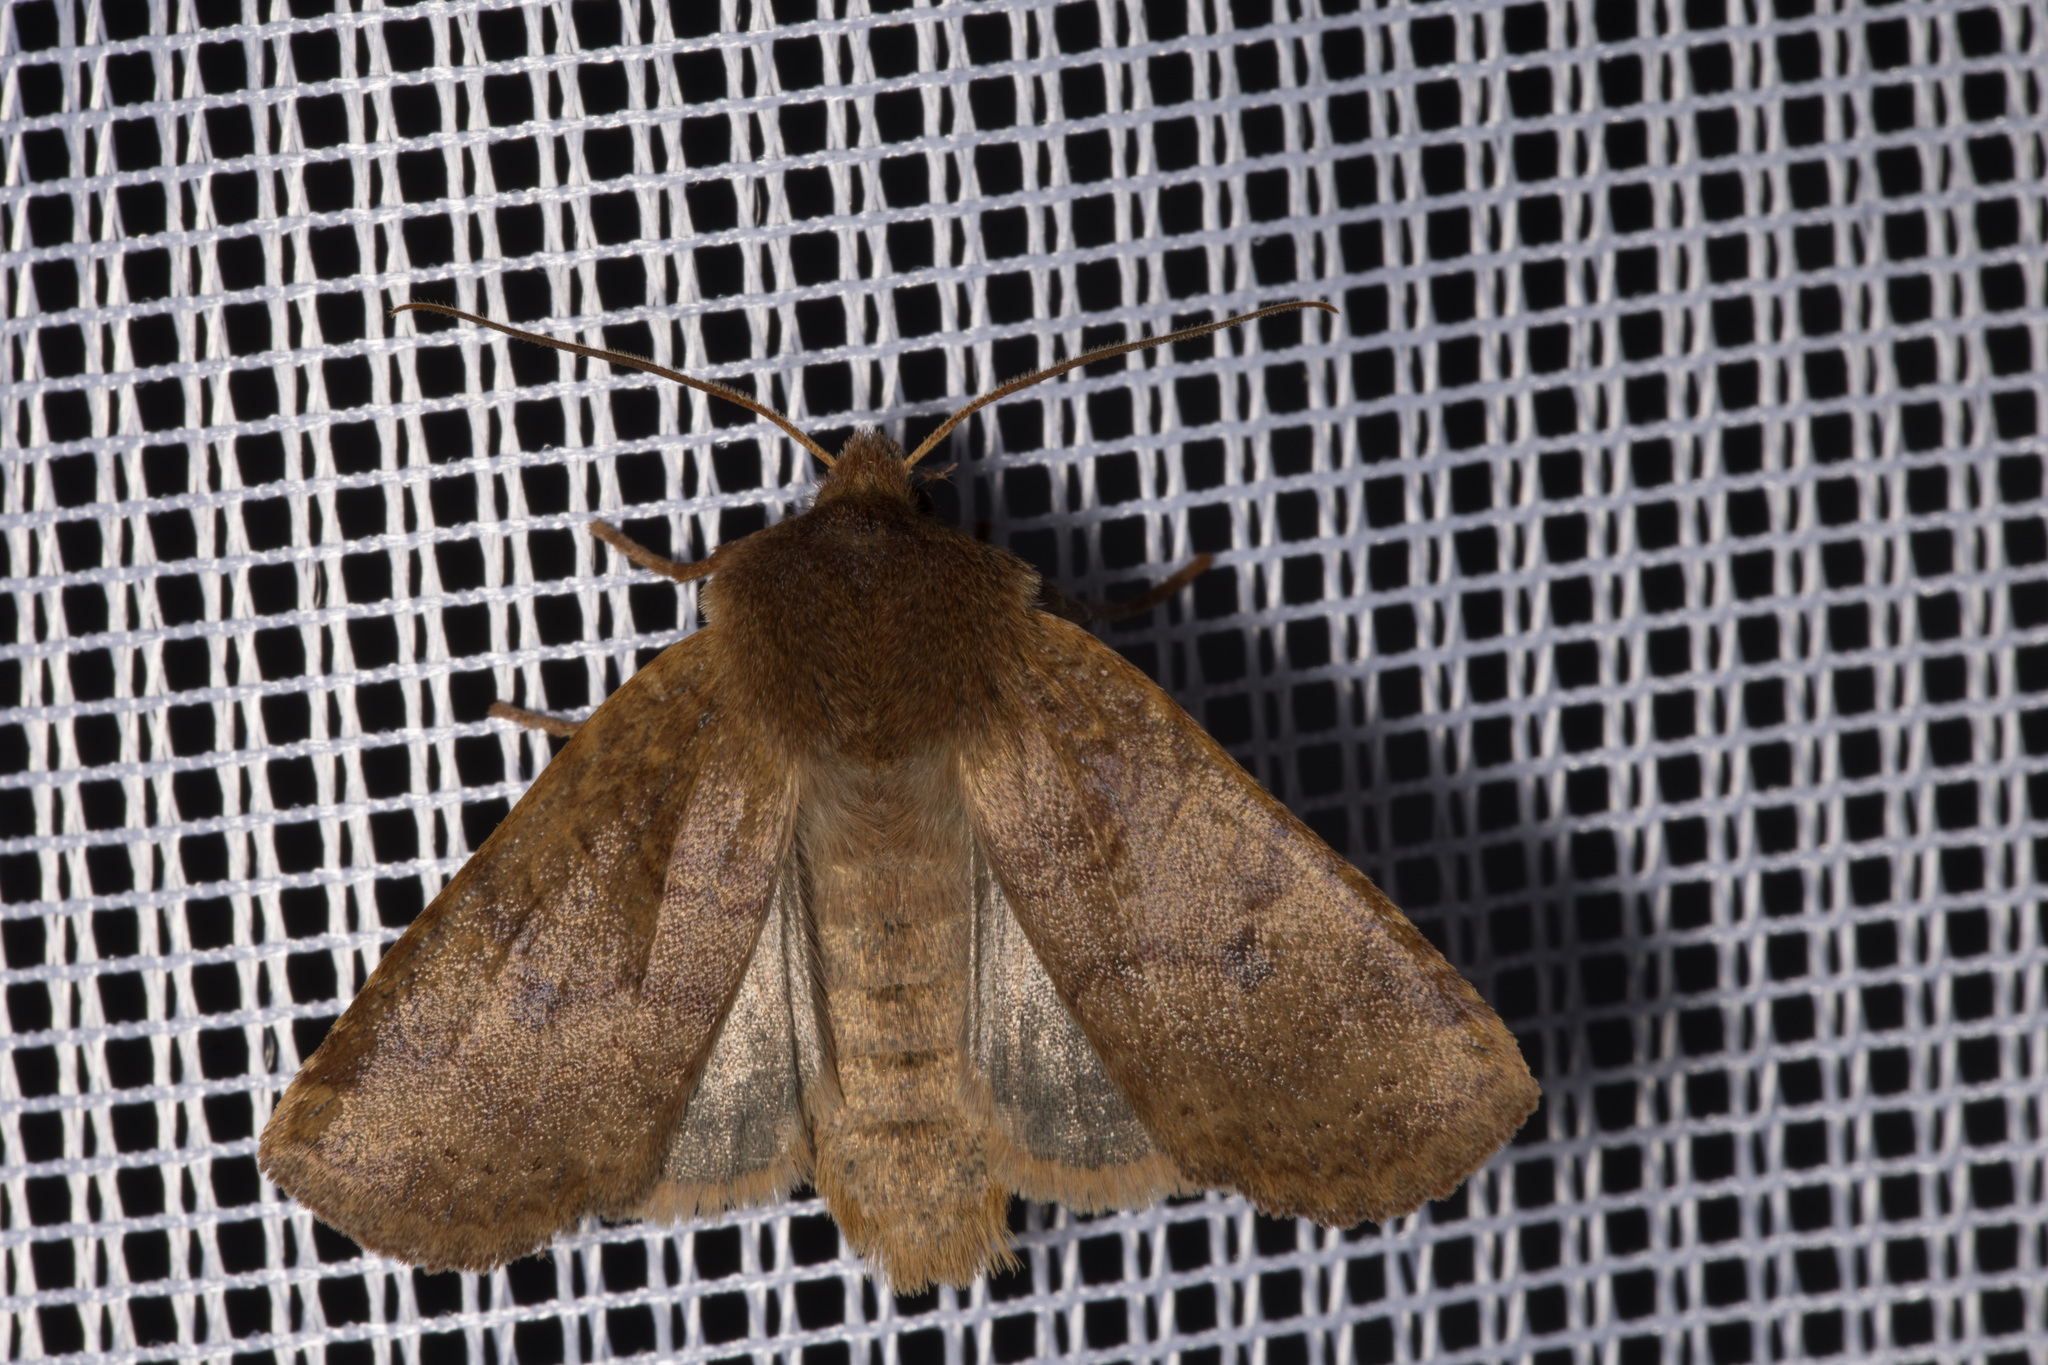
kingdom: Animalia
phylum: Arthropoda
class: Insecta
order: Lepidoptera
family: Noctuidae
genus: Conistra
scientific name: Conistra vaccinii
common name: Chestnut
